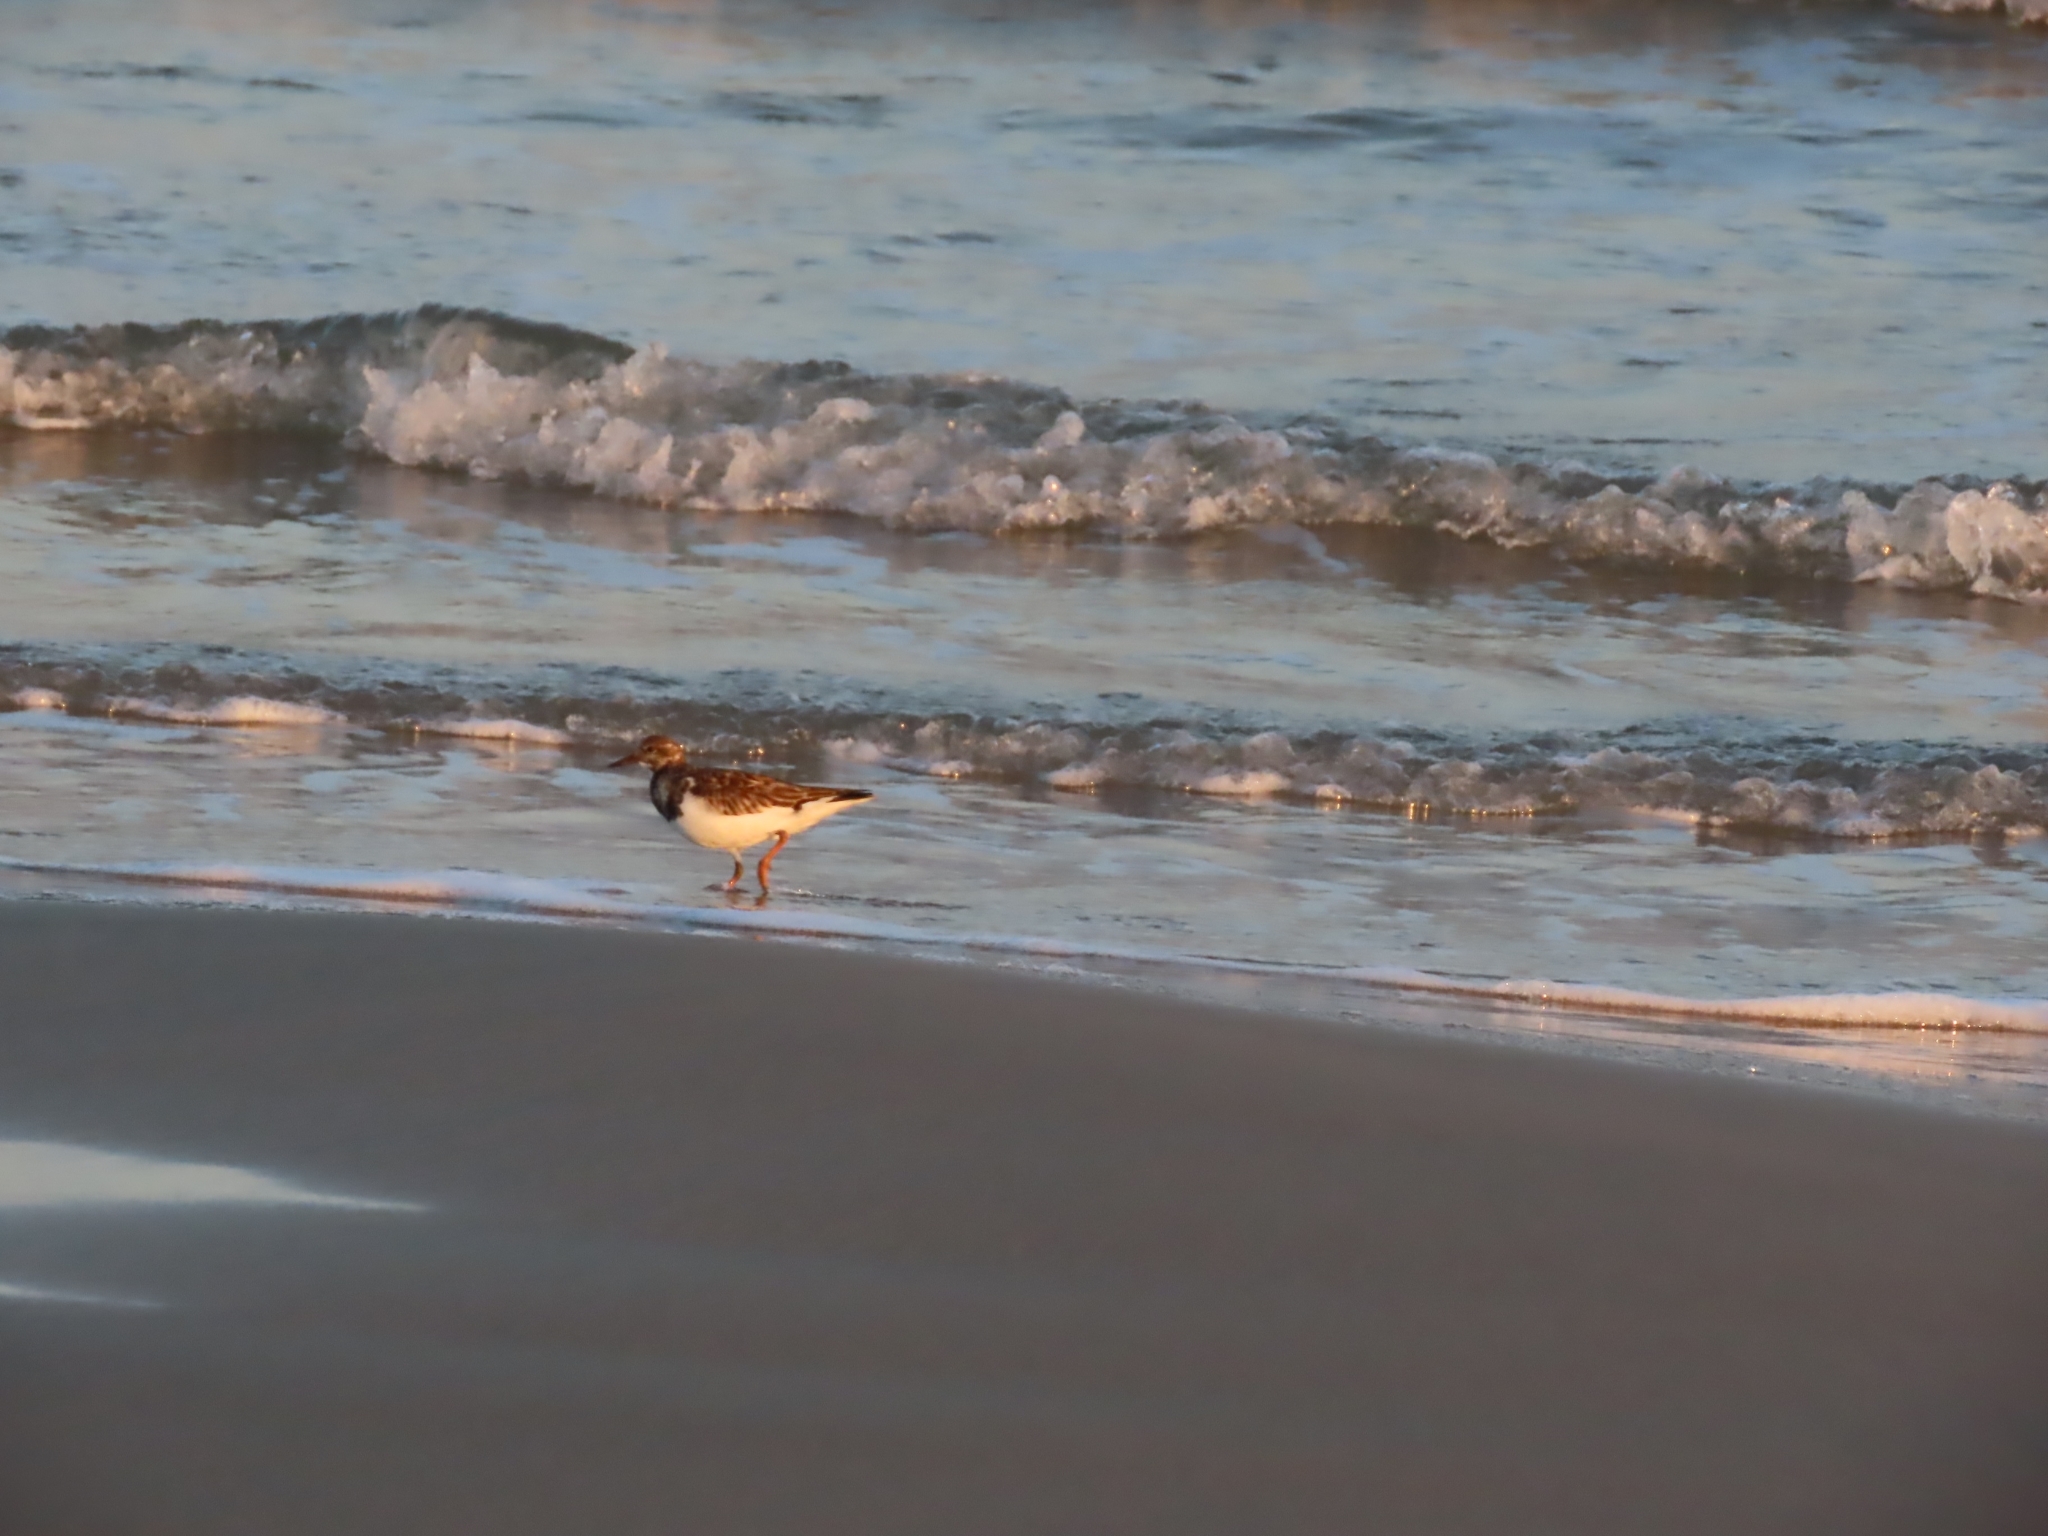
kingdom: Animalia
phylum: Chordata
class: Aves
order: Charadriiformes
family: Scolopacidae
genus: Arenaria
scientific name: Arenaria interpres
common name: Ruddy turnstone
